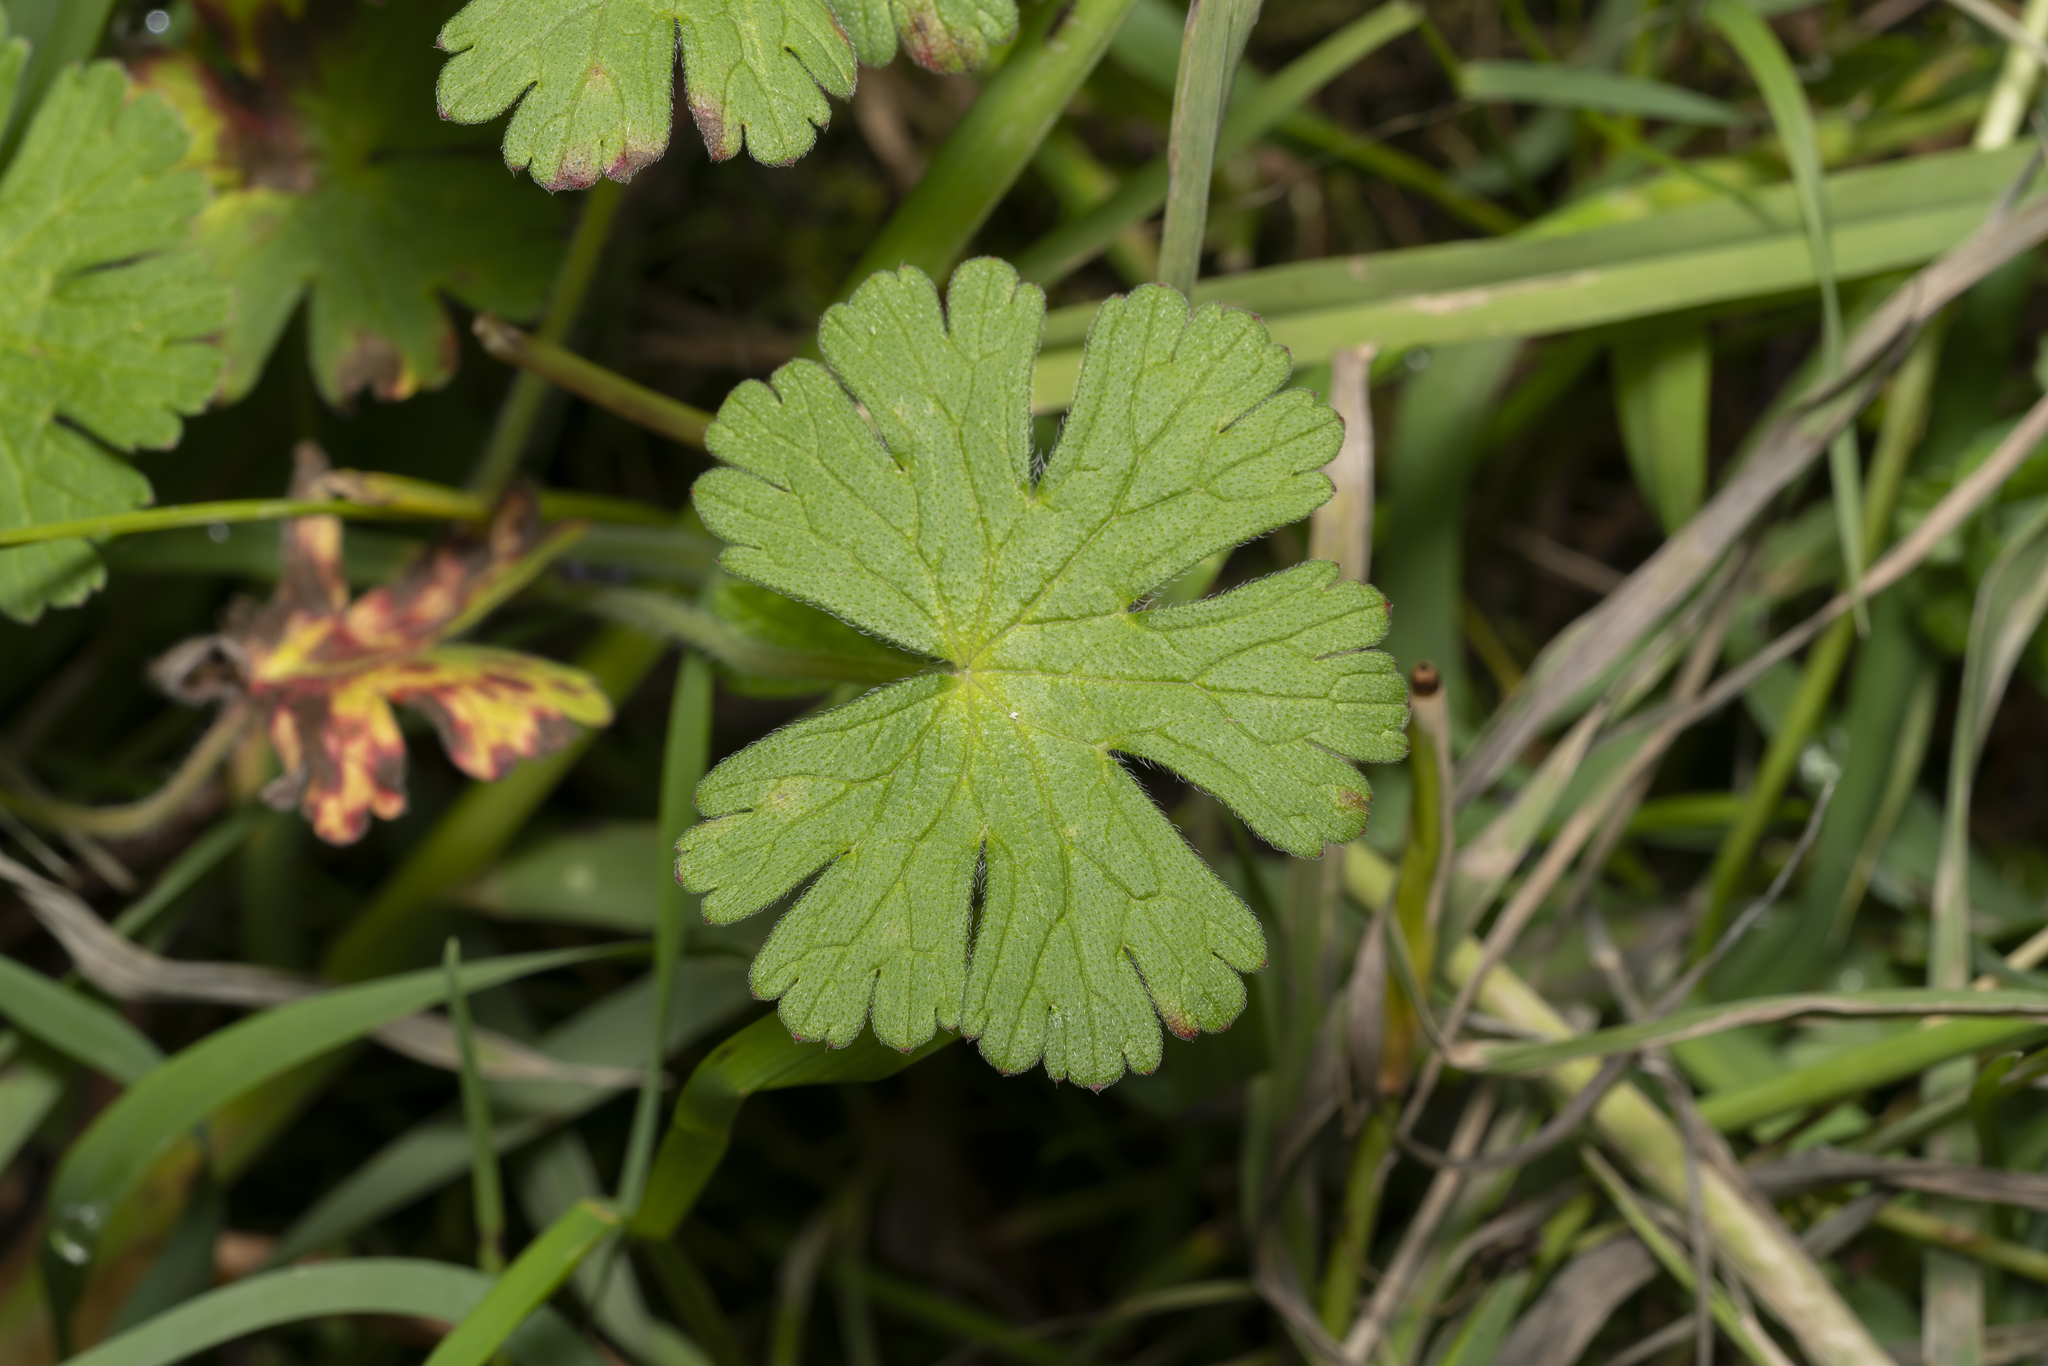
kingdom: Plantae
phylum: Tracheophyta
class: Magnoliopsida
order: Geraniales
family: Geraniaceae
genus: Geranium
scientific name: Geranium pyrenaicum
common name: Hedgerow crane's-bill
